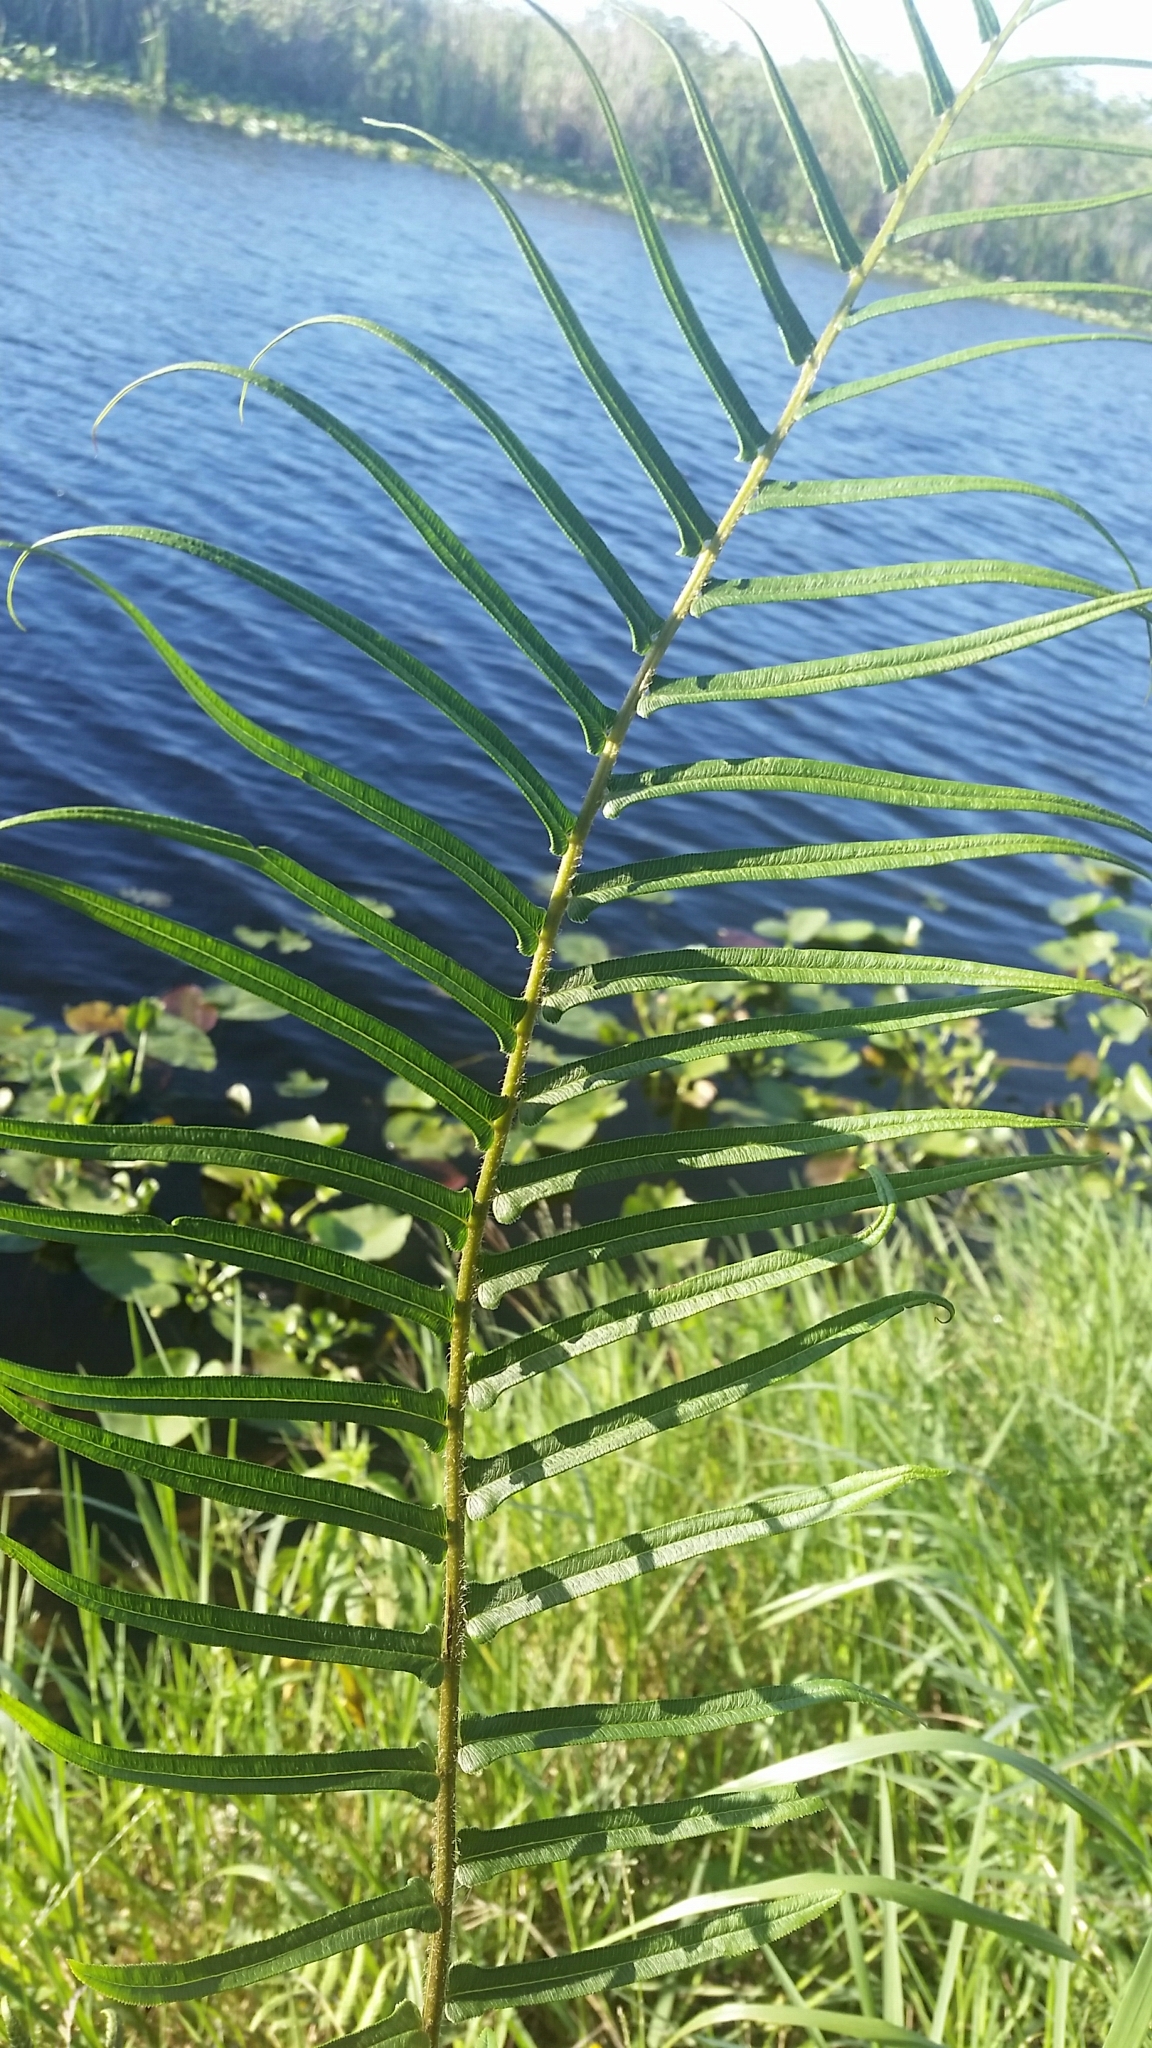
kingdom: Plantae
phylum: Tracheophyta
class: Polypodiopsida
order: Polypodiales
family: Pteridaceae
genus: Pteris
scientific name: Pteris vittata
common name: Ladder brake
